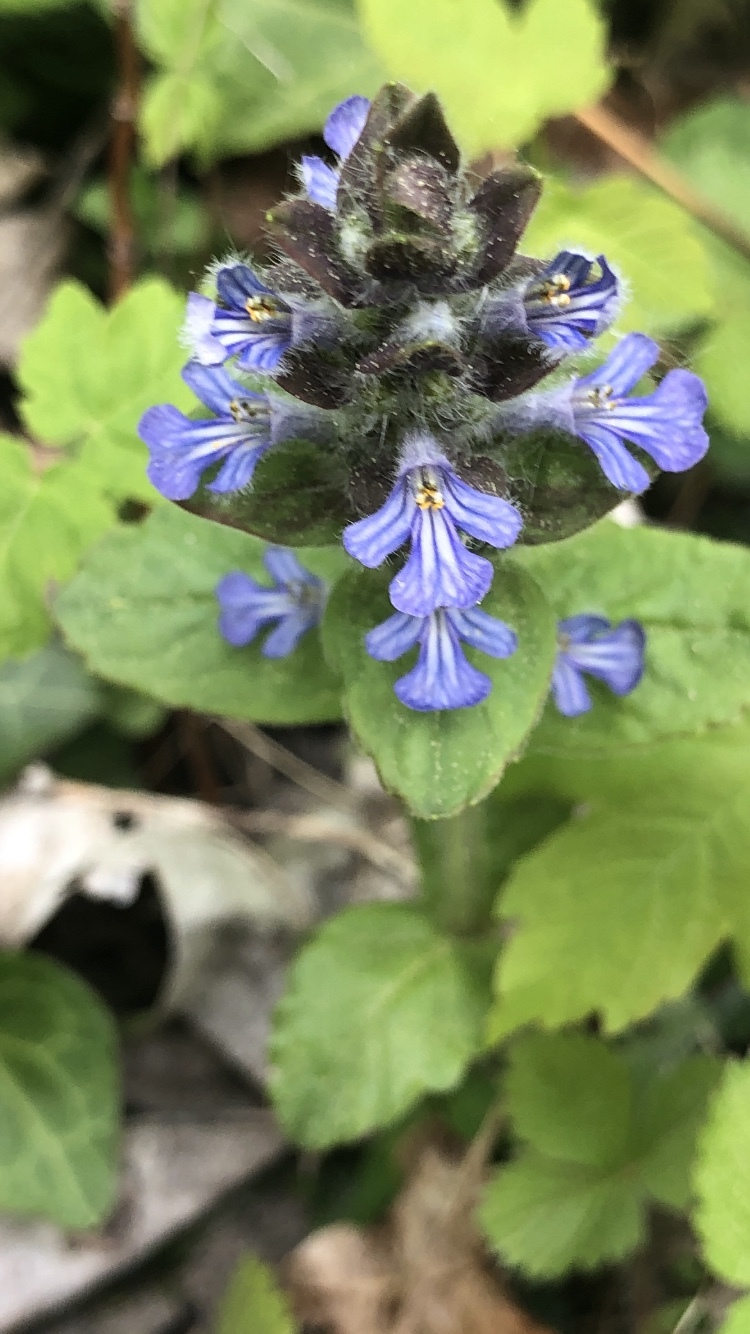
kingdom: Plantae
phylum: Tracheophyta
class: Magnoliopsida
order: Lamiales
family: Lamiaceae
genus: Ajuga
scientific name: Ajuga reptans
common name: Bugle
